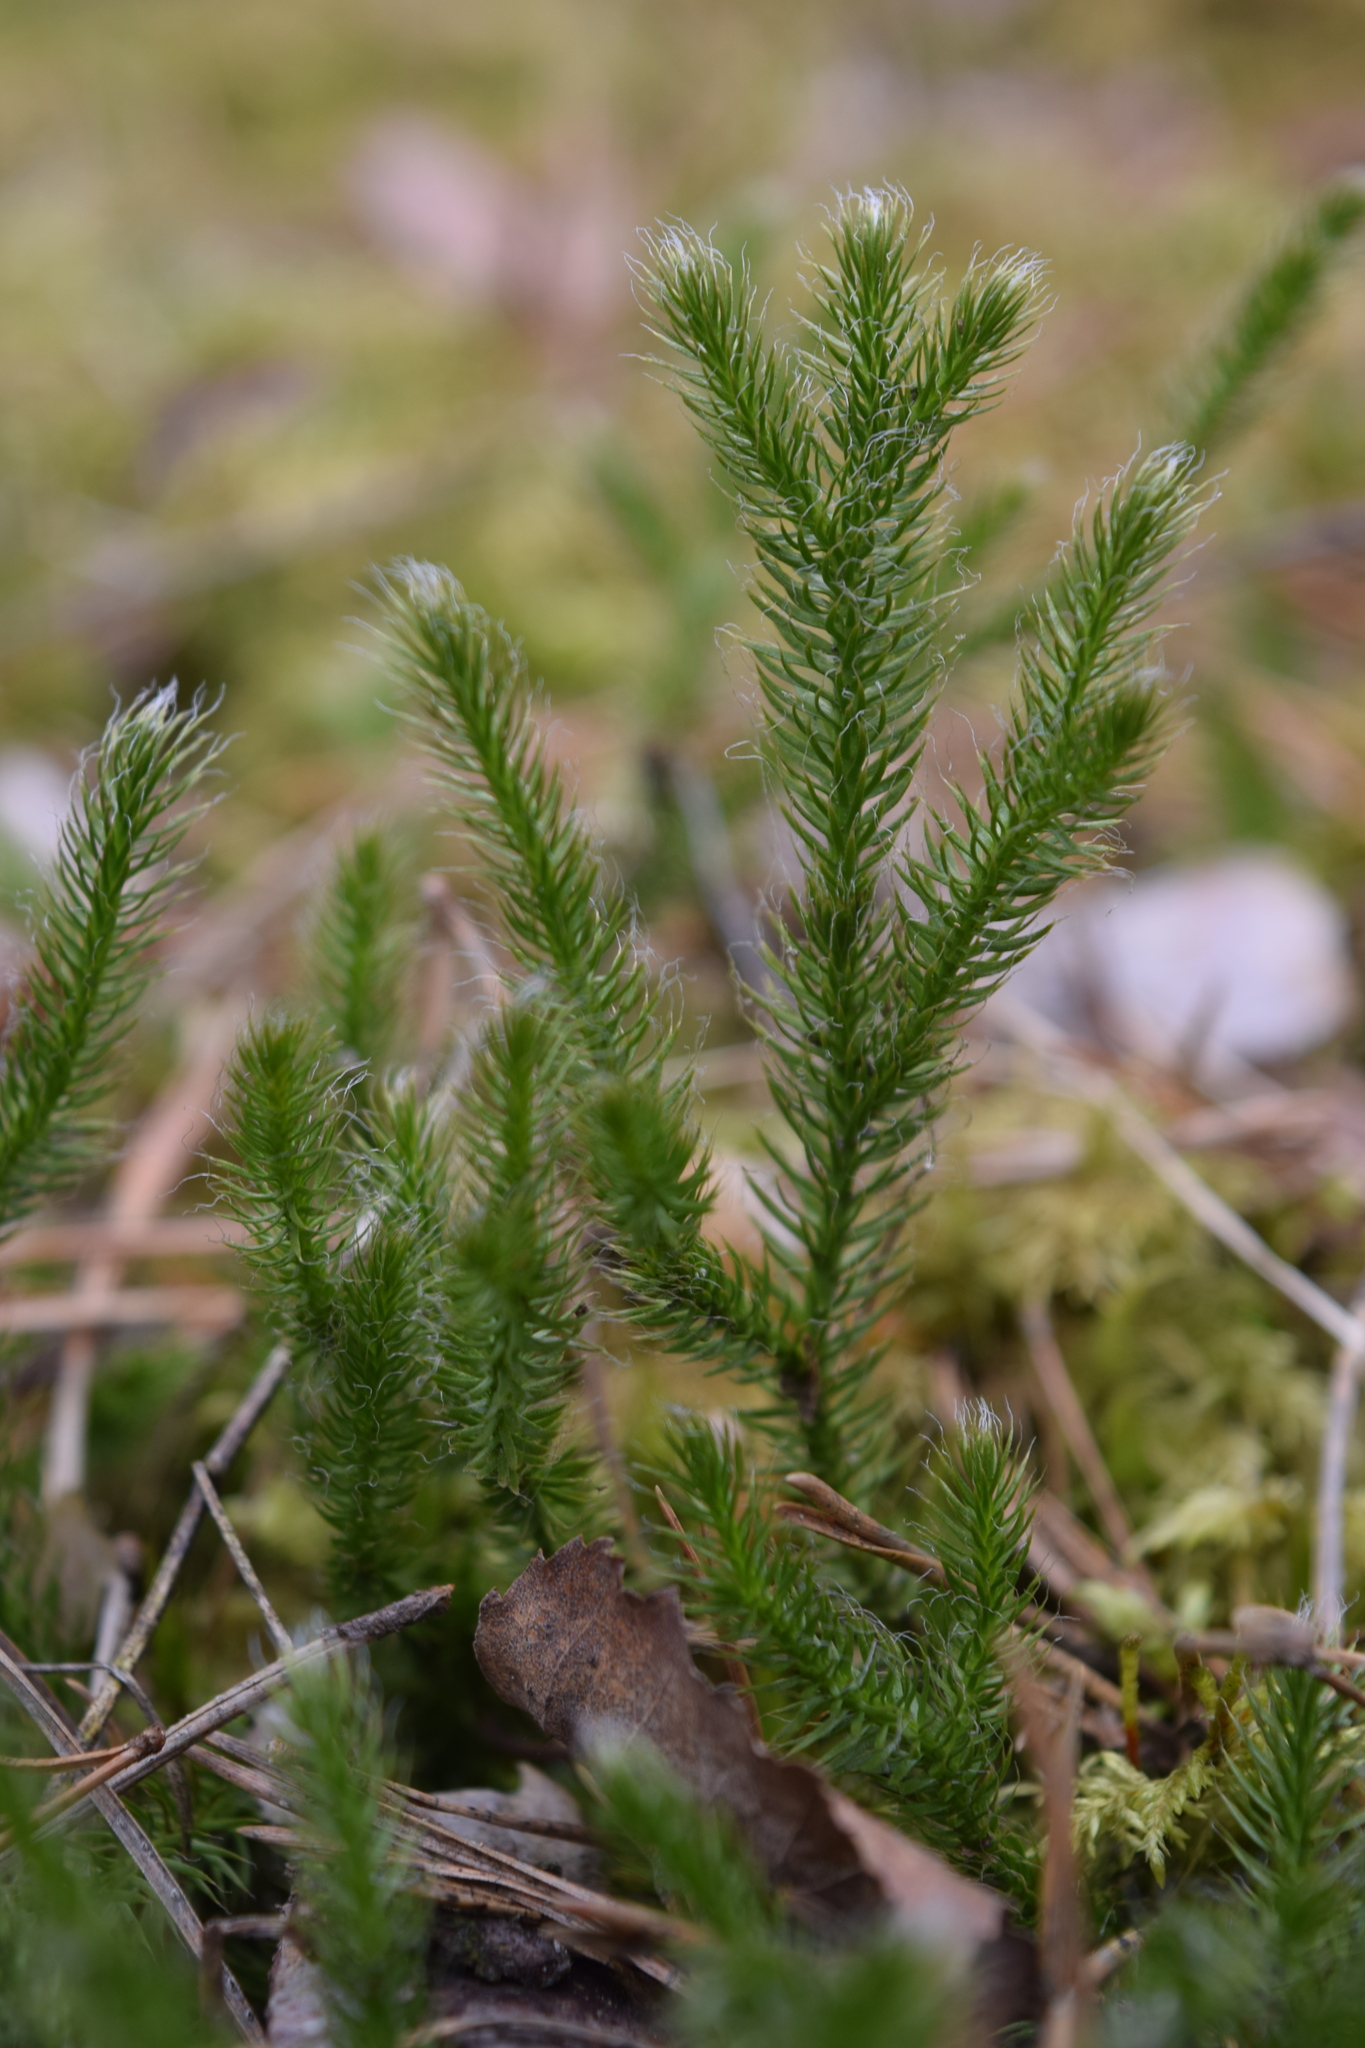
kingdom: Plantae
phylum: Tracheophyta
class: Lycopodiopsida
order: Lycopodiales
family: Lycopodiaceae
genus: Lycopodium
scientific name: Lycopodium clavatum
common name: Stag's-horn clubmoss
